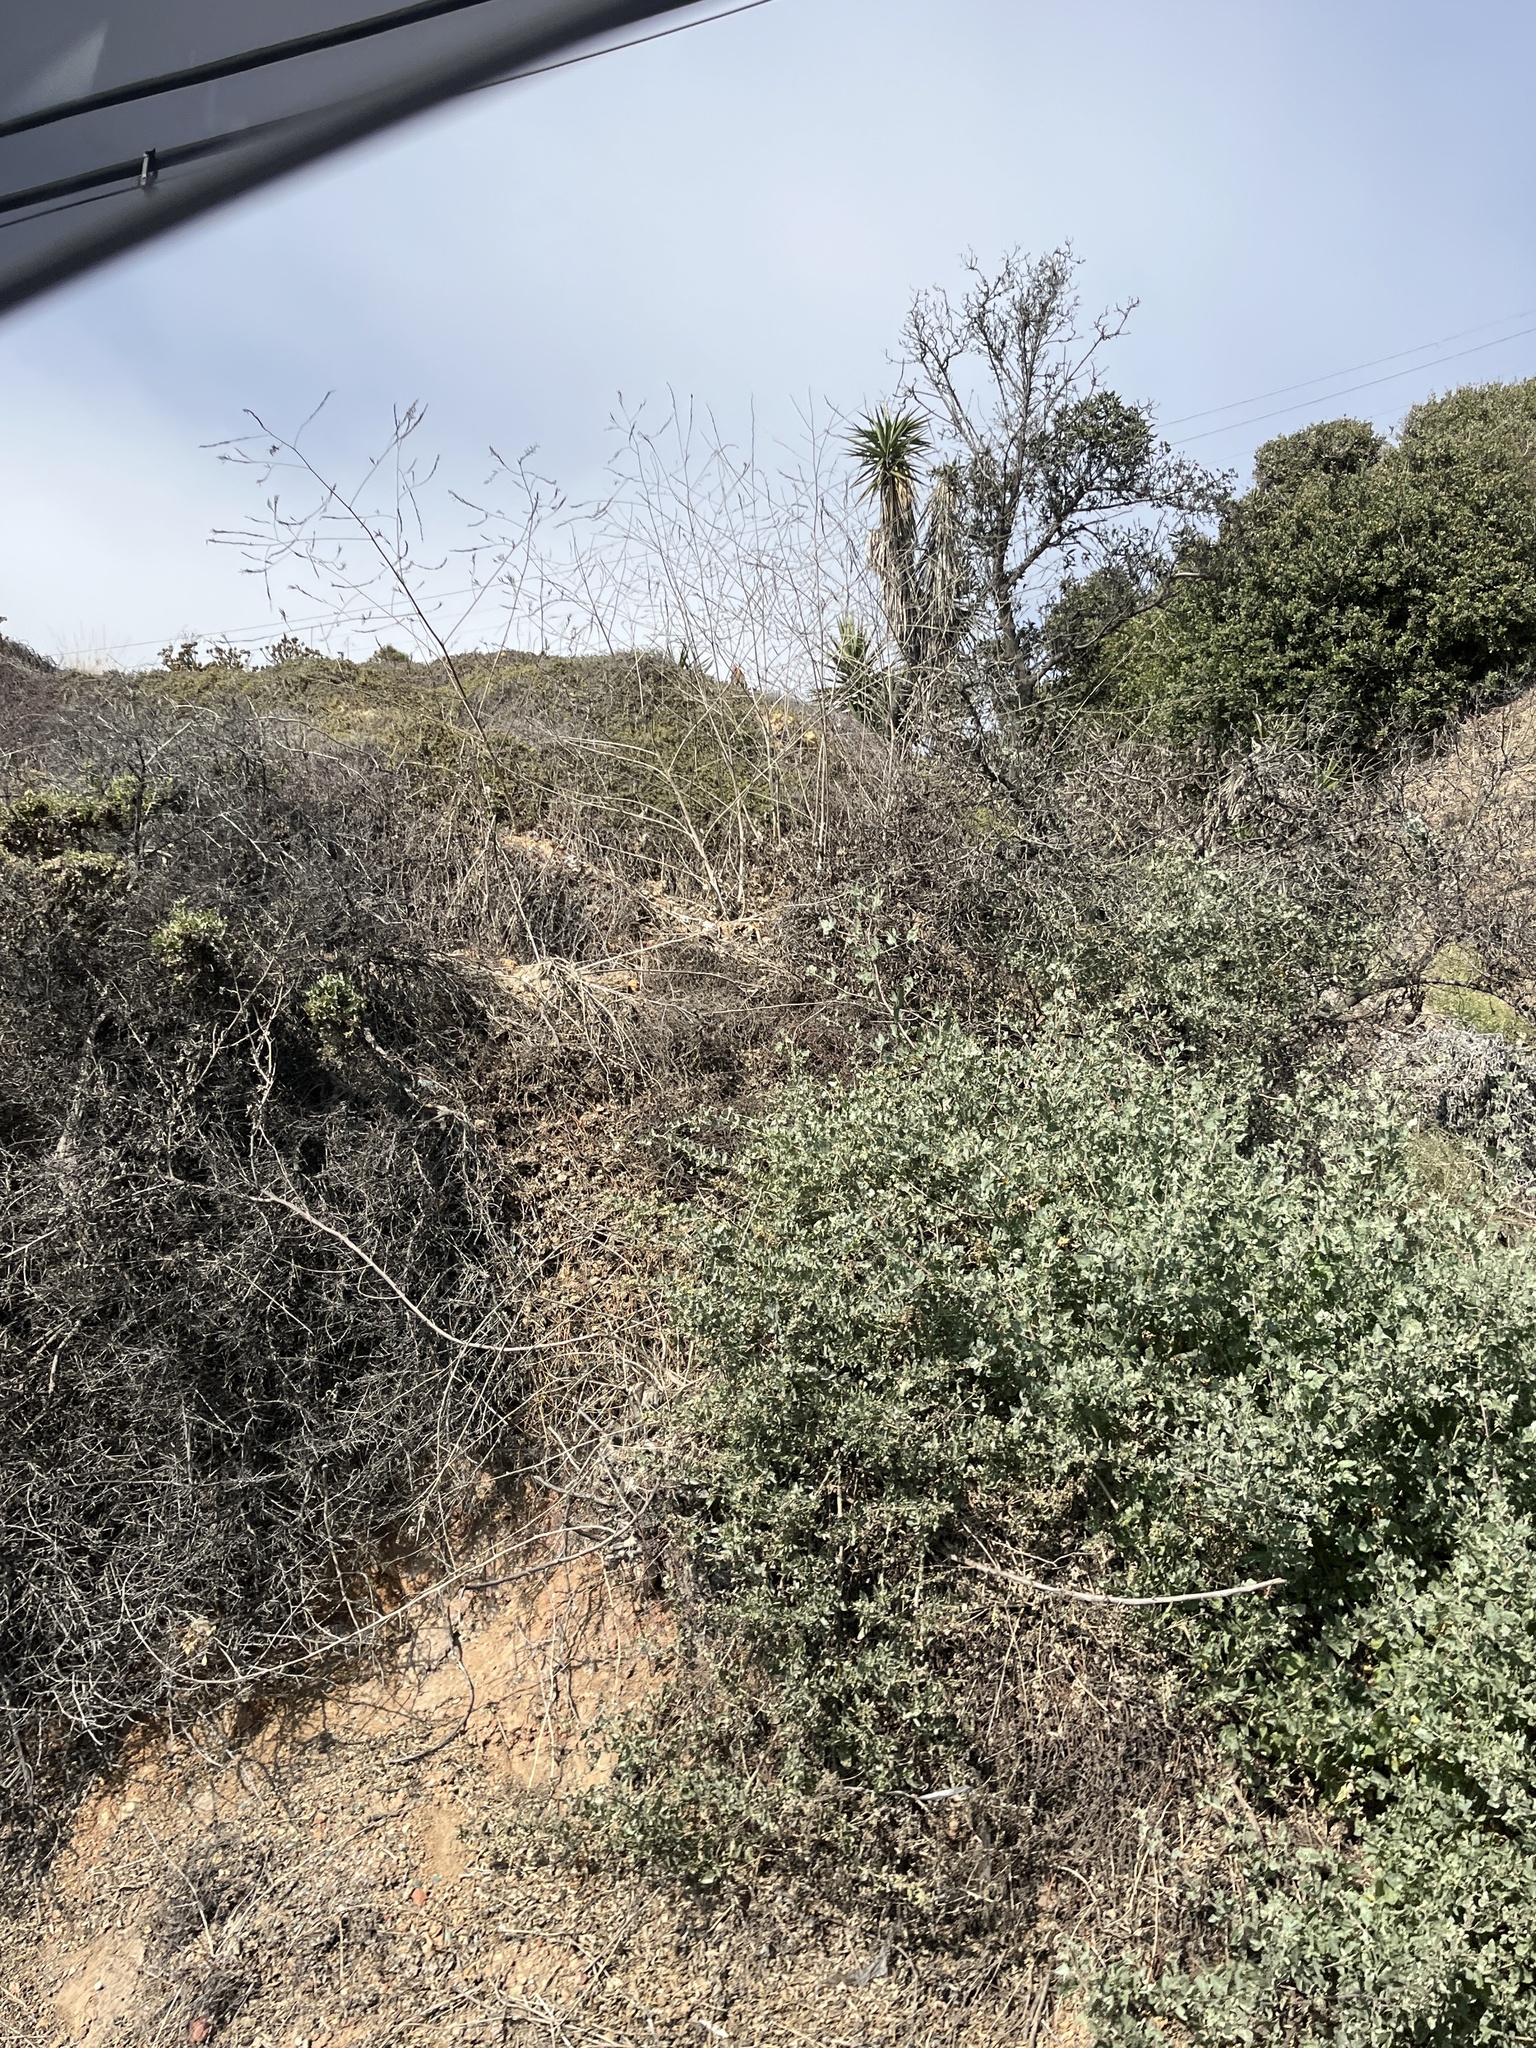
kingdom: Plantae
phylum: Tracheophyta
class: Magnoliopsida
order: Caryophyllales
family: Amaranthaceae
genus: Atriplex
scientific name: Atriplex lentiformis
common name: Big saltbush
